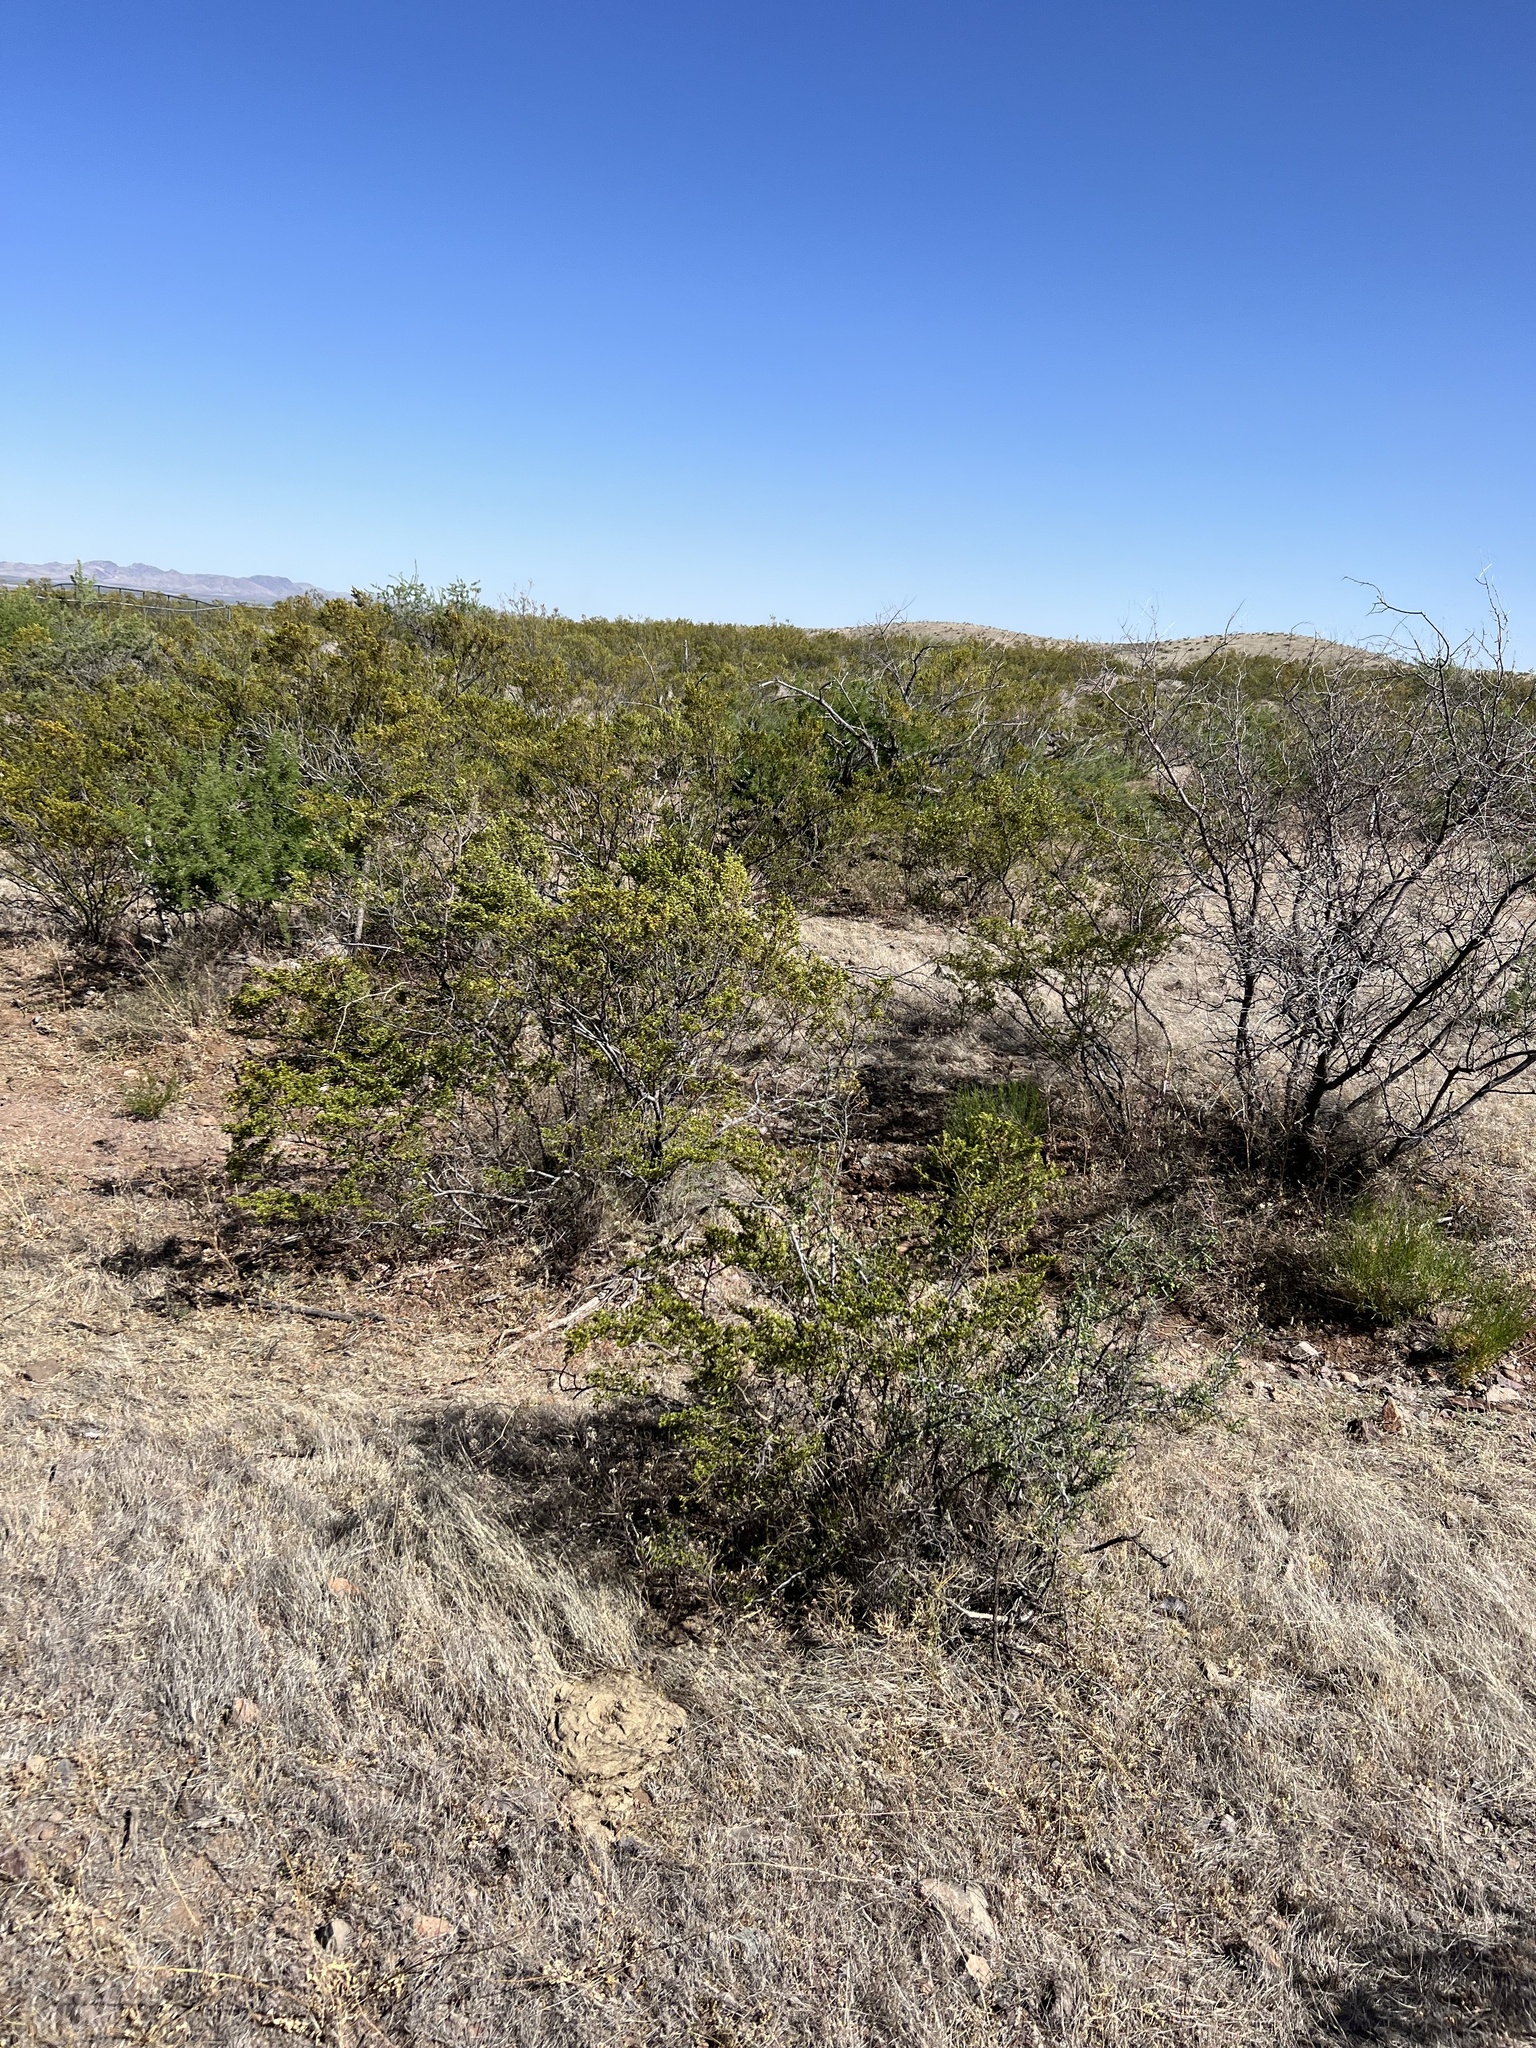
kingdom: Plantae
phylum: Tracheophyta
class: Magnoliopsida
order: Zygophyllales
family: Zygophyllaceae
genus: Larrea
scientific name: Larrea tridentata
